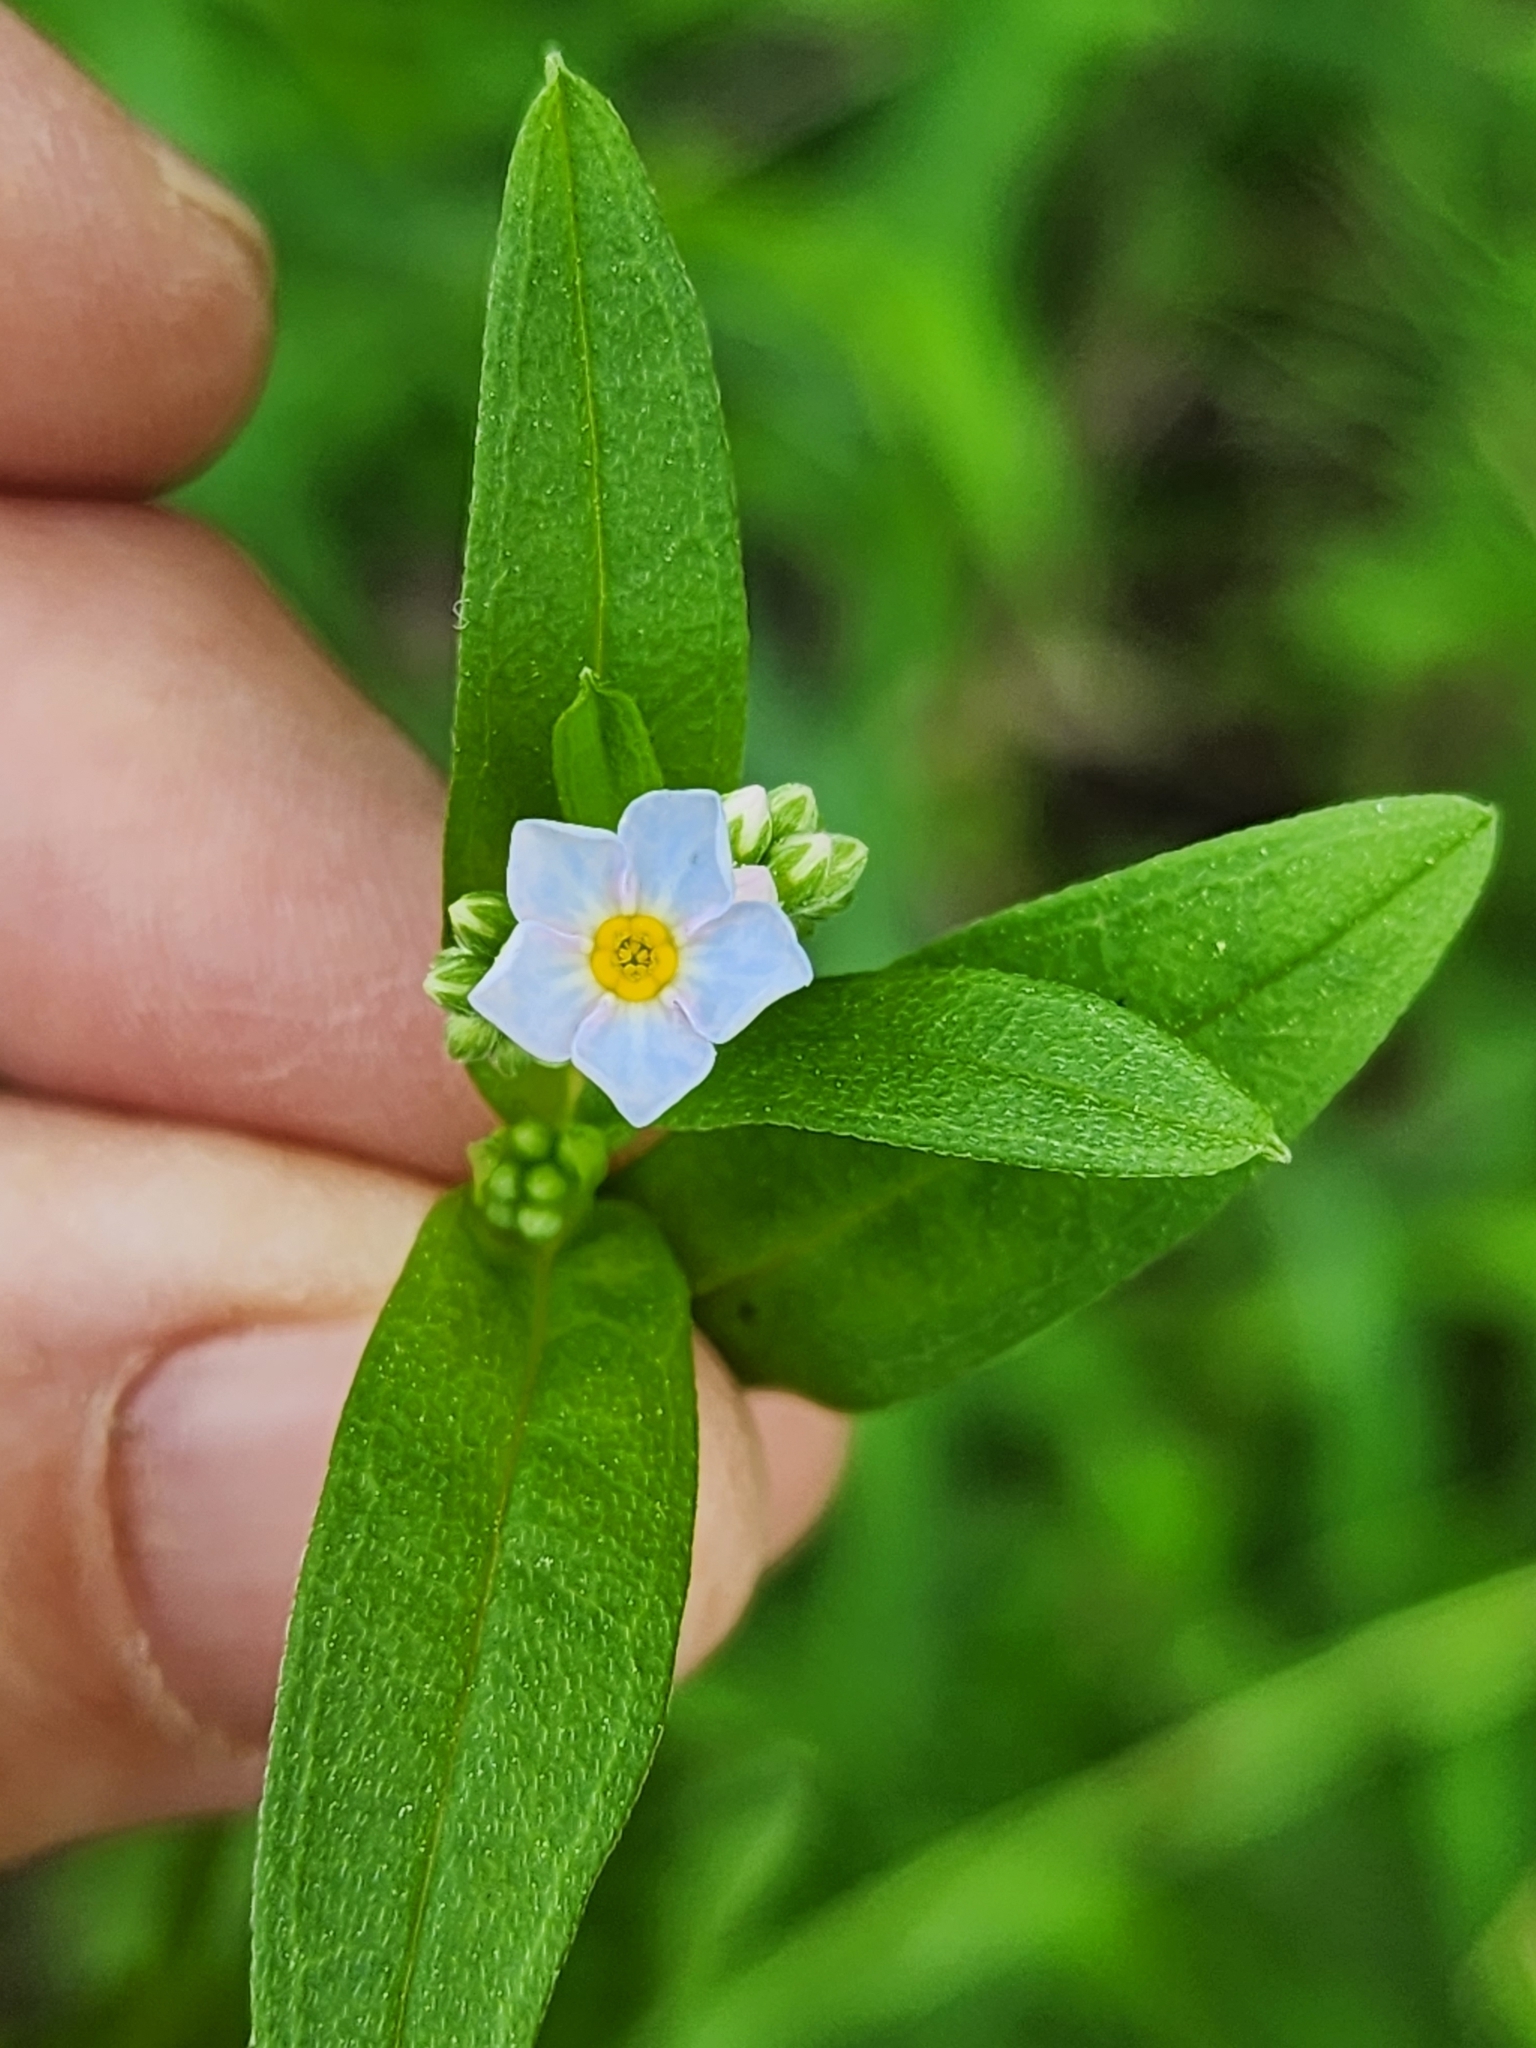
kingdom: Plantae
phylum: Tracheophyta
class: Magnoliopsida
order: Boraginales
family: Boraginaceae
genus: Myosotis
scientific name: Myosotis scorpioides
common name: Water forget-me-not
